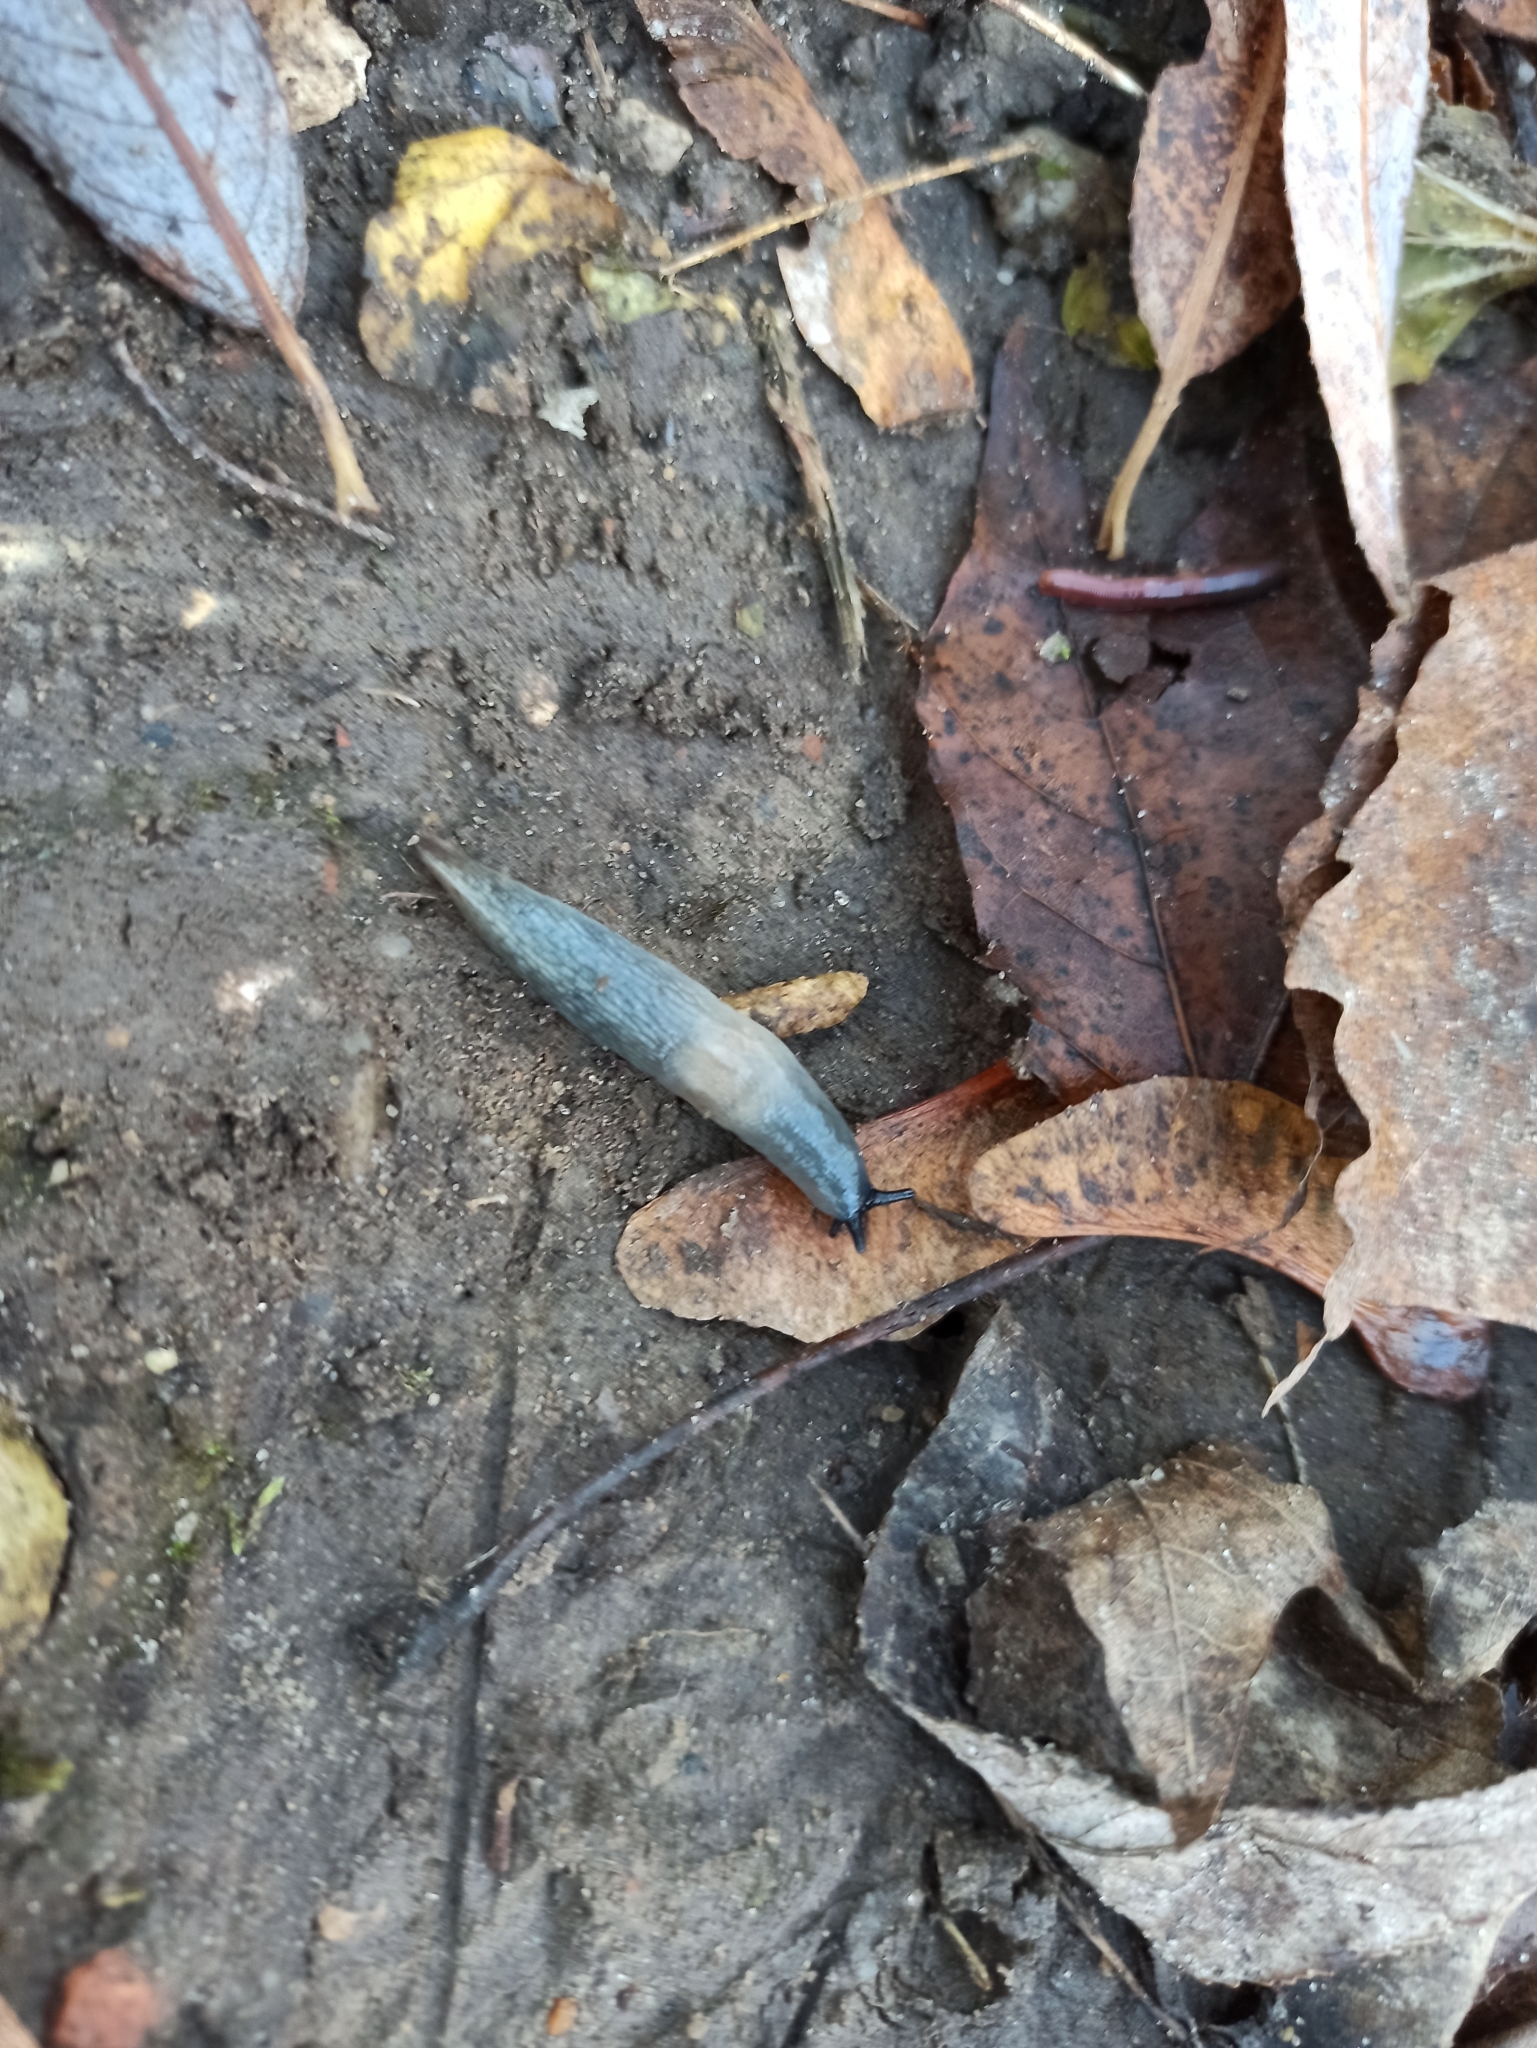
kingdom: Animalia
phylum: Mollusca
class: Gastropoda
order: Stylommatophora
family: Agriolimacidae
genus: Krynickillus
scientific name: Krynickillus melanocephalus
